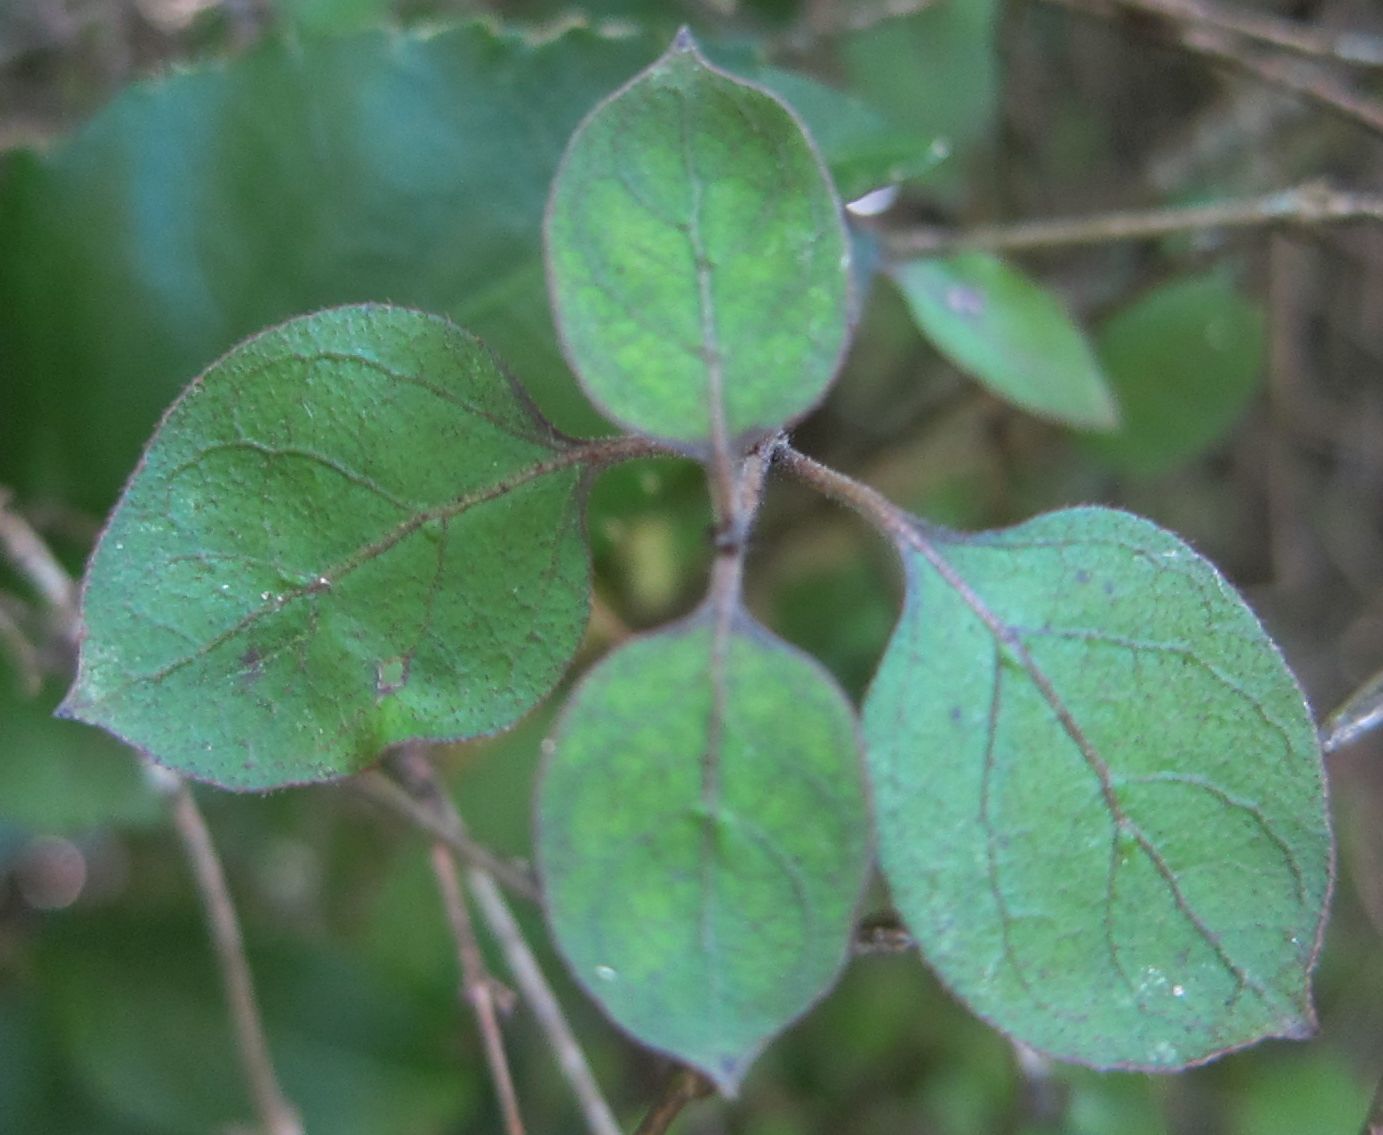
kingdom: Plantae
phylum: Tracheophyta
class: Magnoliopsida
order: Gentianales
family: Rubiaceae
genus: Coprosma
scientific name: Coprosma rotundifolia
